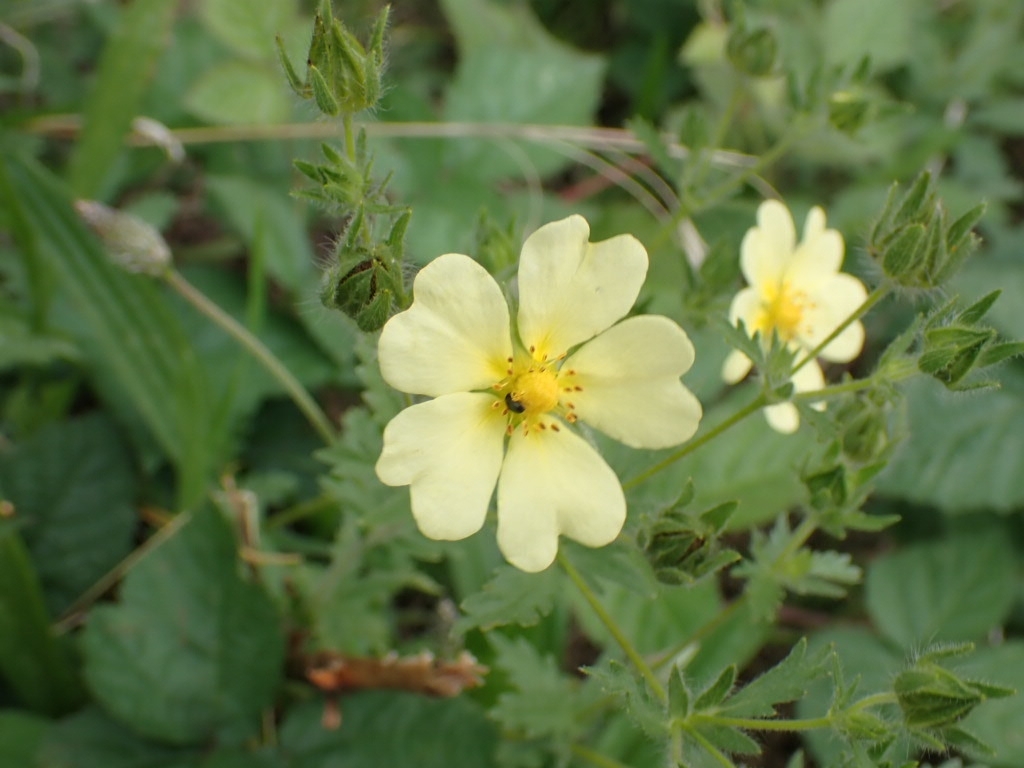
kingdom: Plantae
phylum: Tracheophyta
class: Magnoliopsida
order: Rosales
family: Rosaceae
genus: Potentilla
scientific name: Potentilla recta
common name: Sulphur cinquefoil
